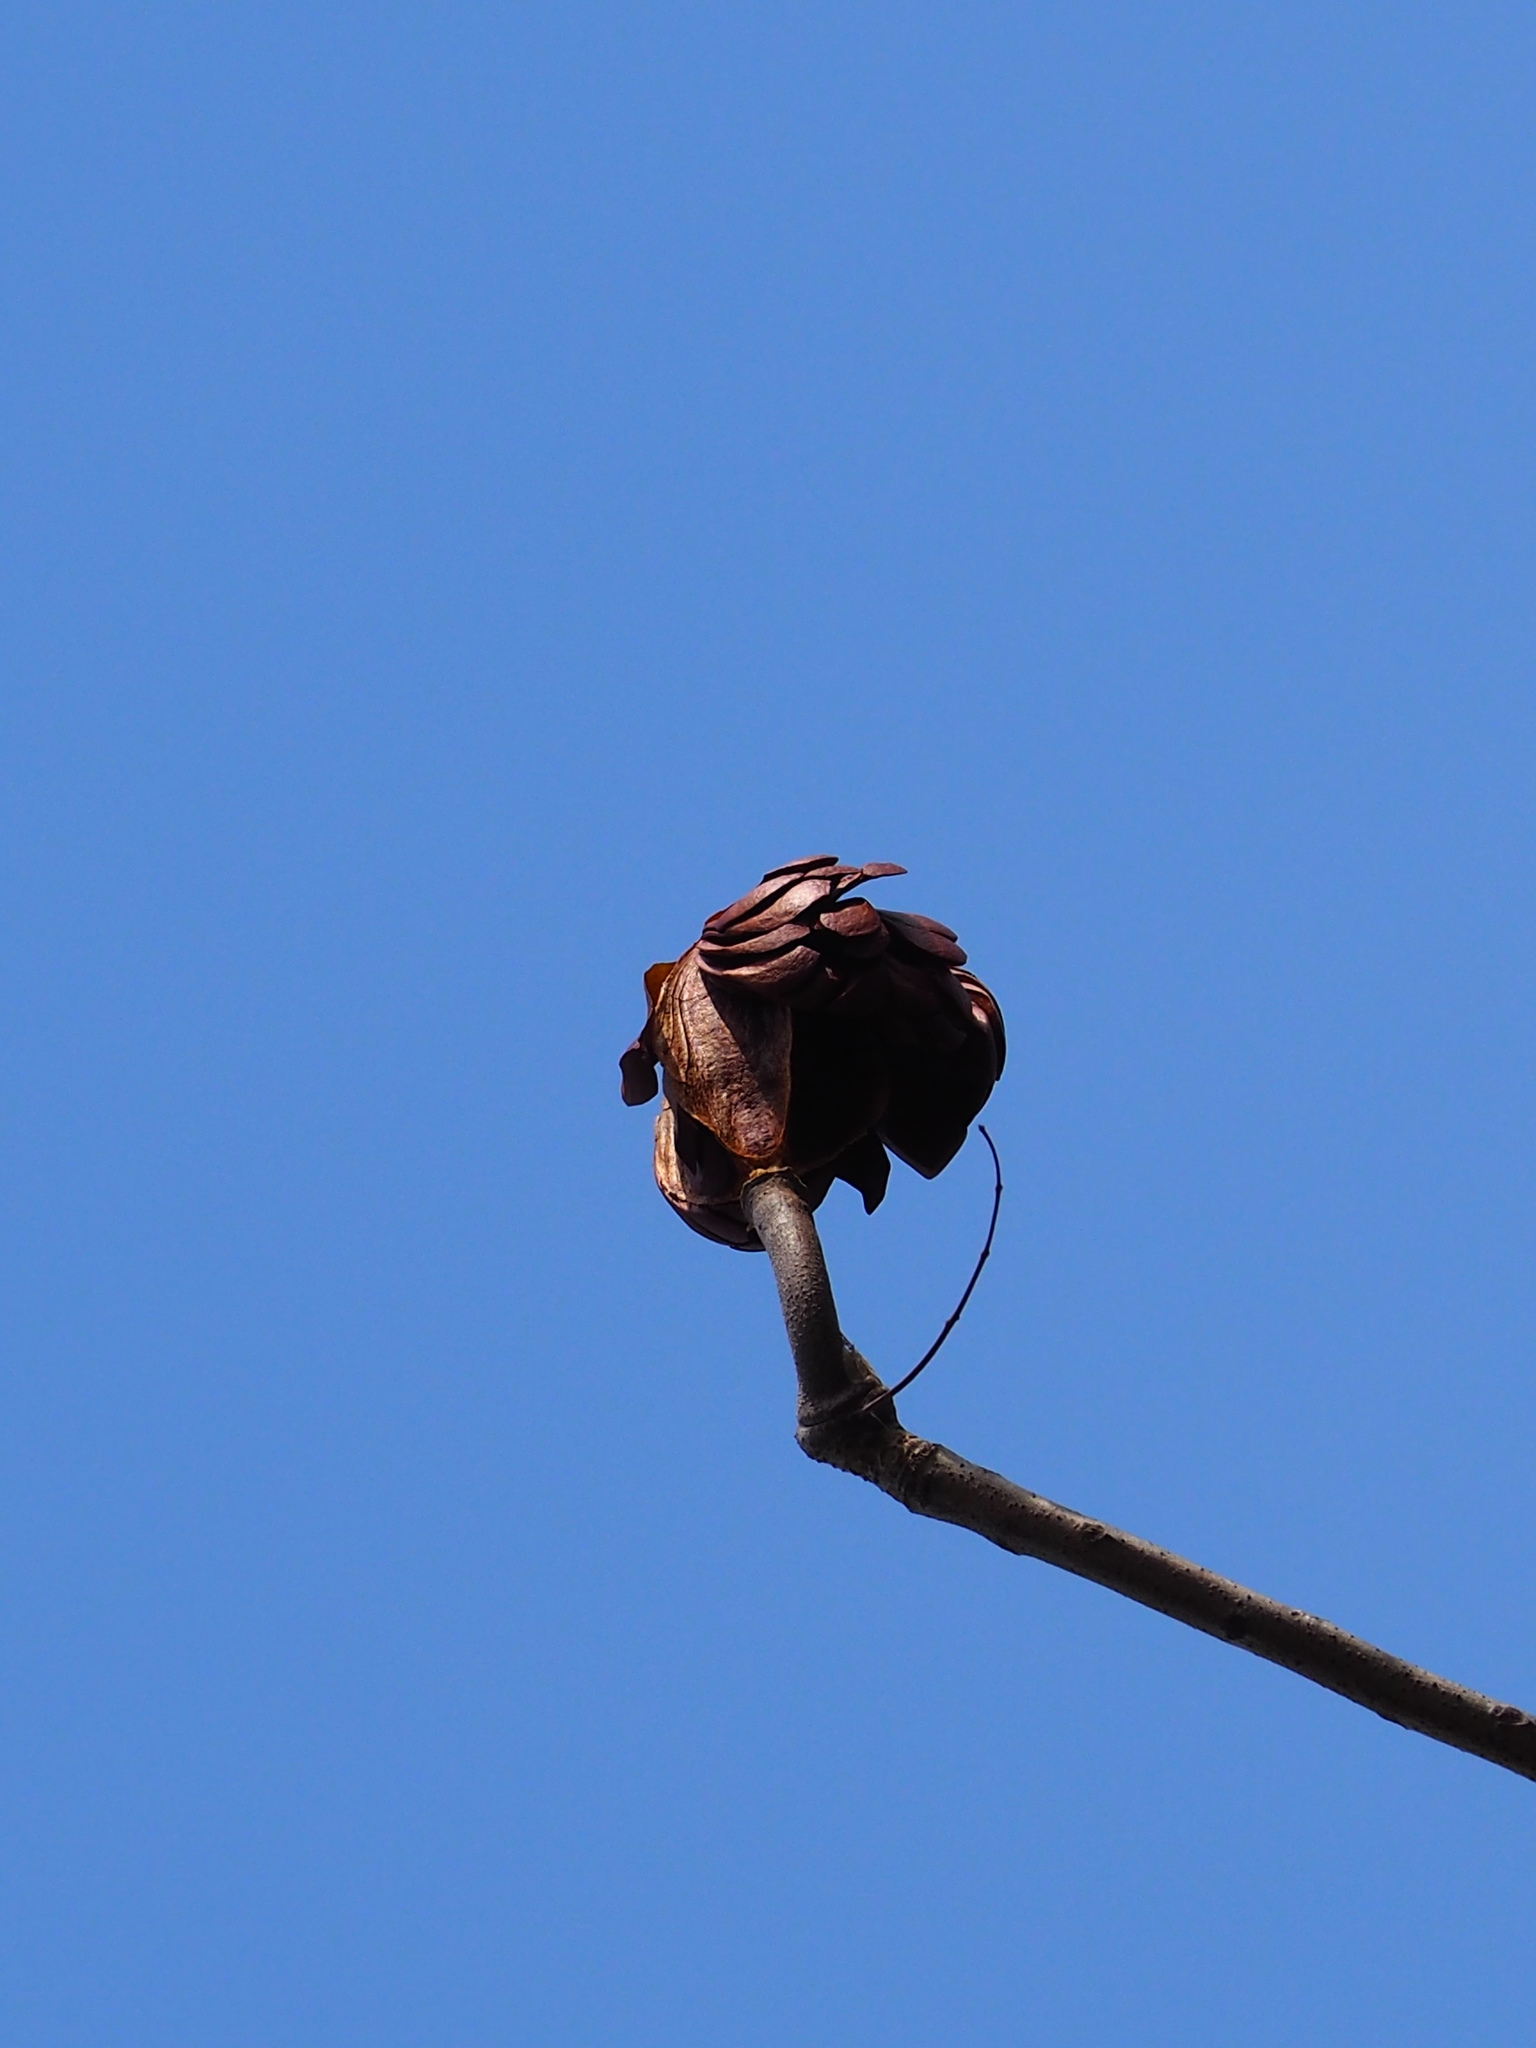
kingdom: Plantae
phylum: Tracheophyta
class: Magnoliopsida
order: Sapindales
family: Meliaceae
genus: Swietenia
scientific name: Swietenia mahagoni
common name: West indian mahogany
